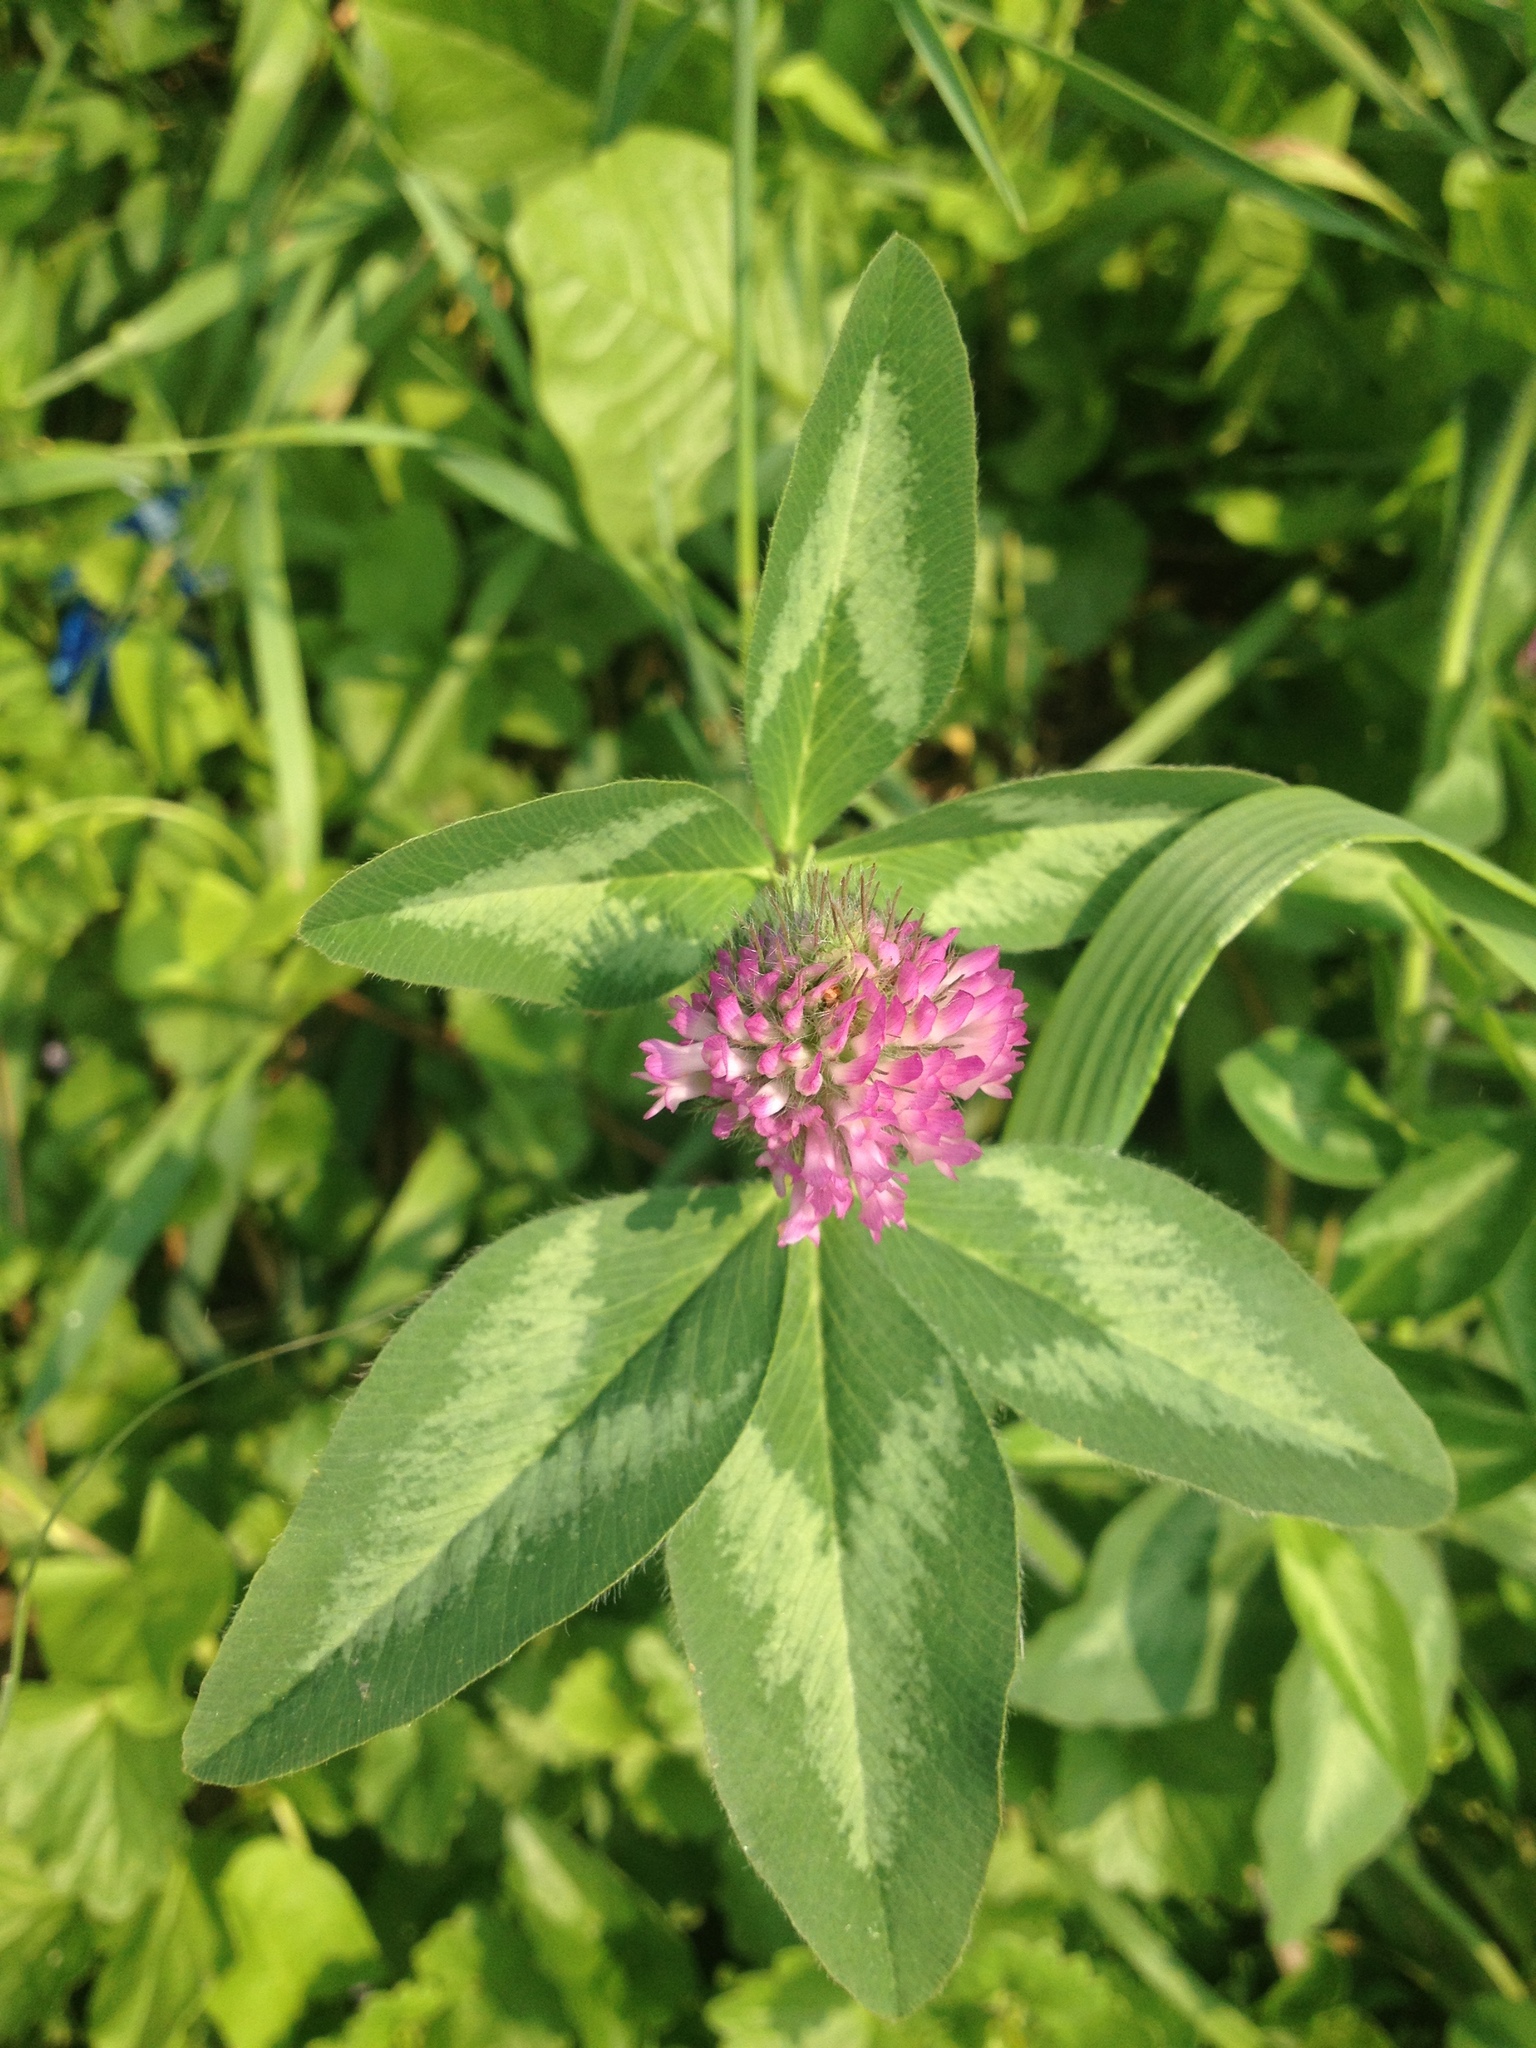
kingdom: Plantae
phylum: Tracheophyta
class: Magnoliopsida
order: Fabales
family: Fabaceae
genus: Trifolium
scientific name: Trifolium pratense
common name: Red clover
